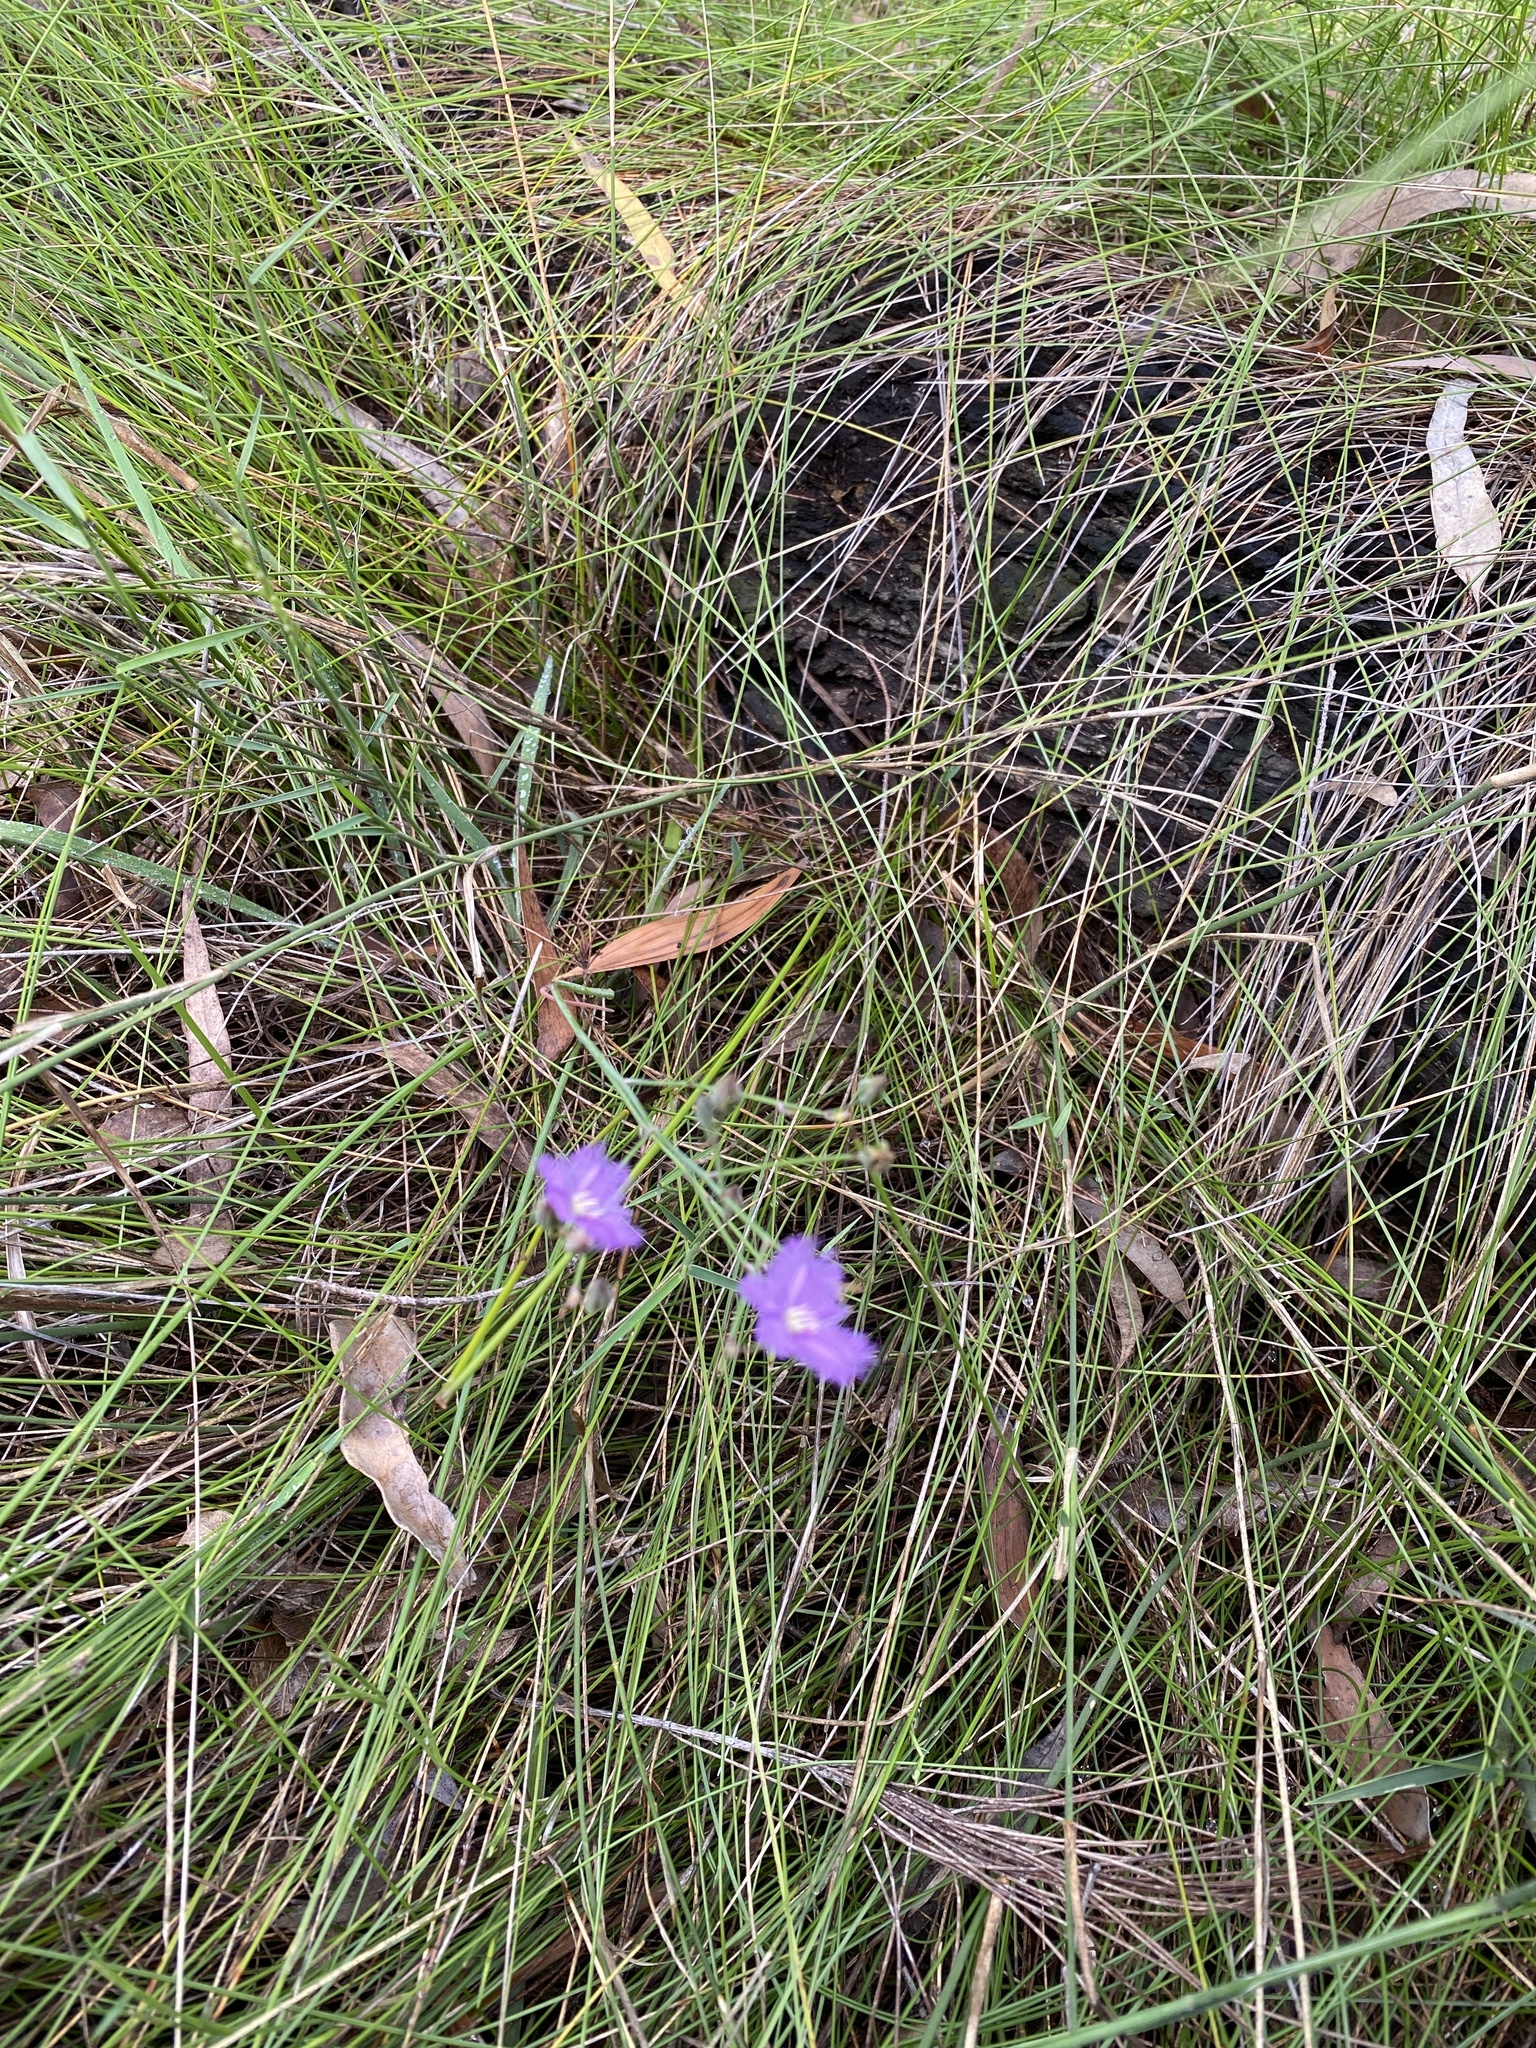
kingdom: Plantae
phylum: Tracheophyta
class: Liliopsida
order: Asparagales
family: Asparagaceae
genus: Thysanotus
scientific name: Thysanotus tuberosus
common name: Common fringed-lily
